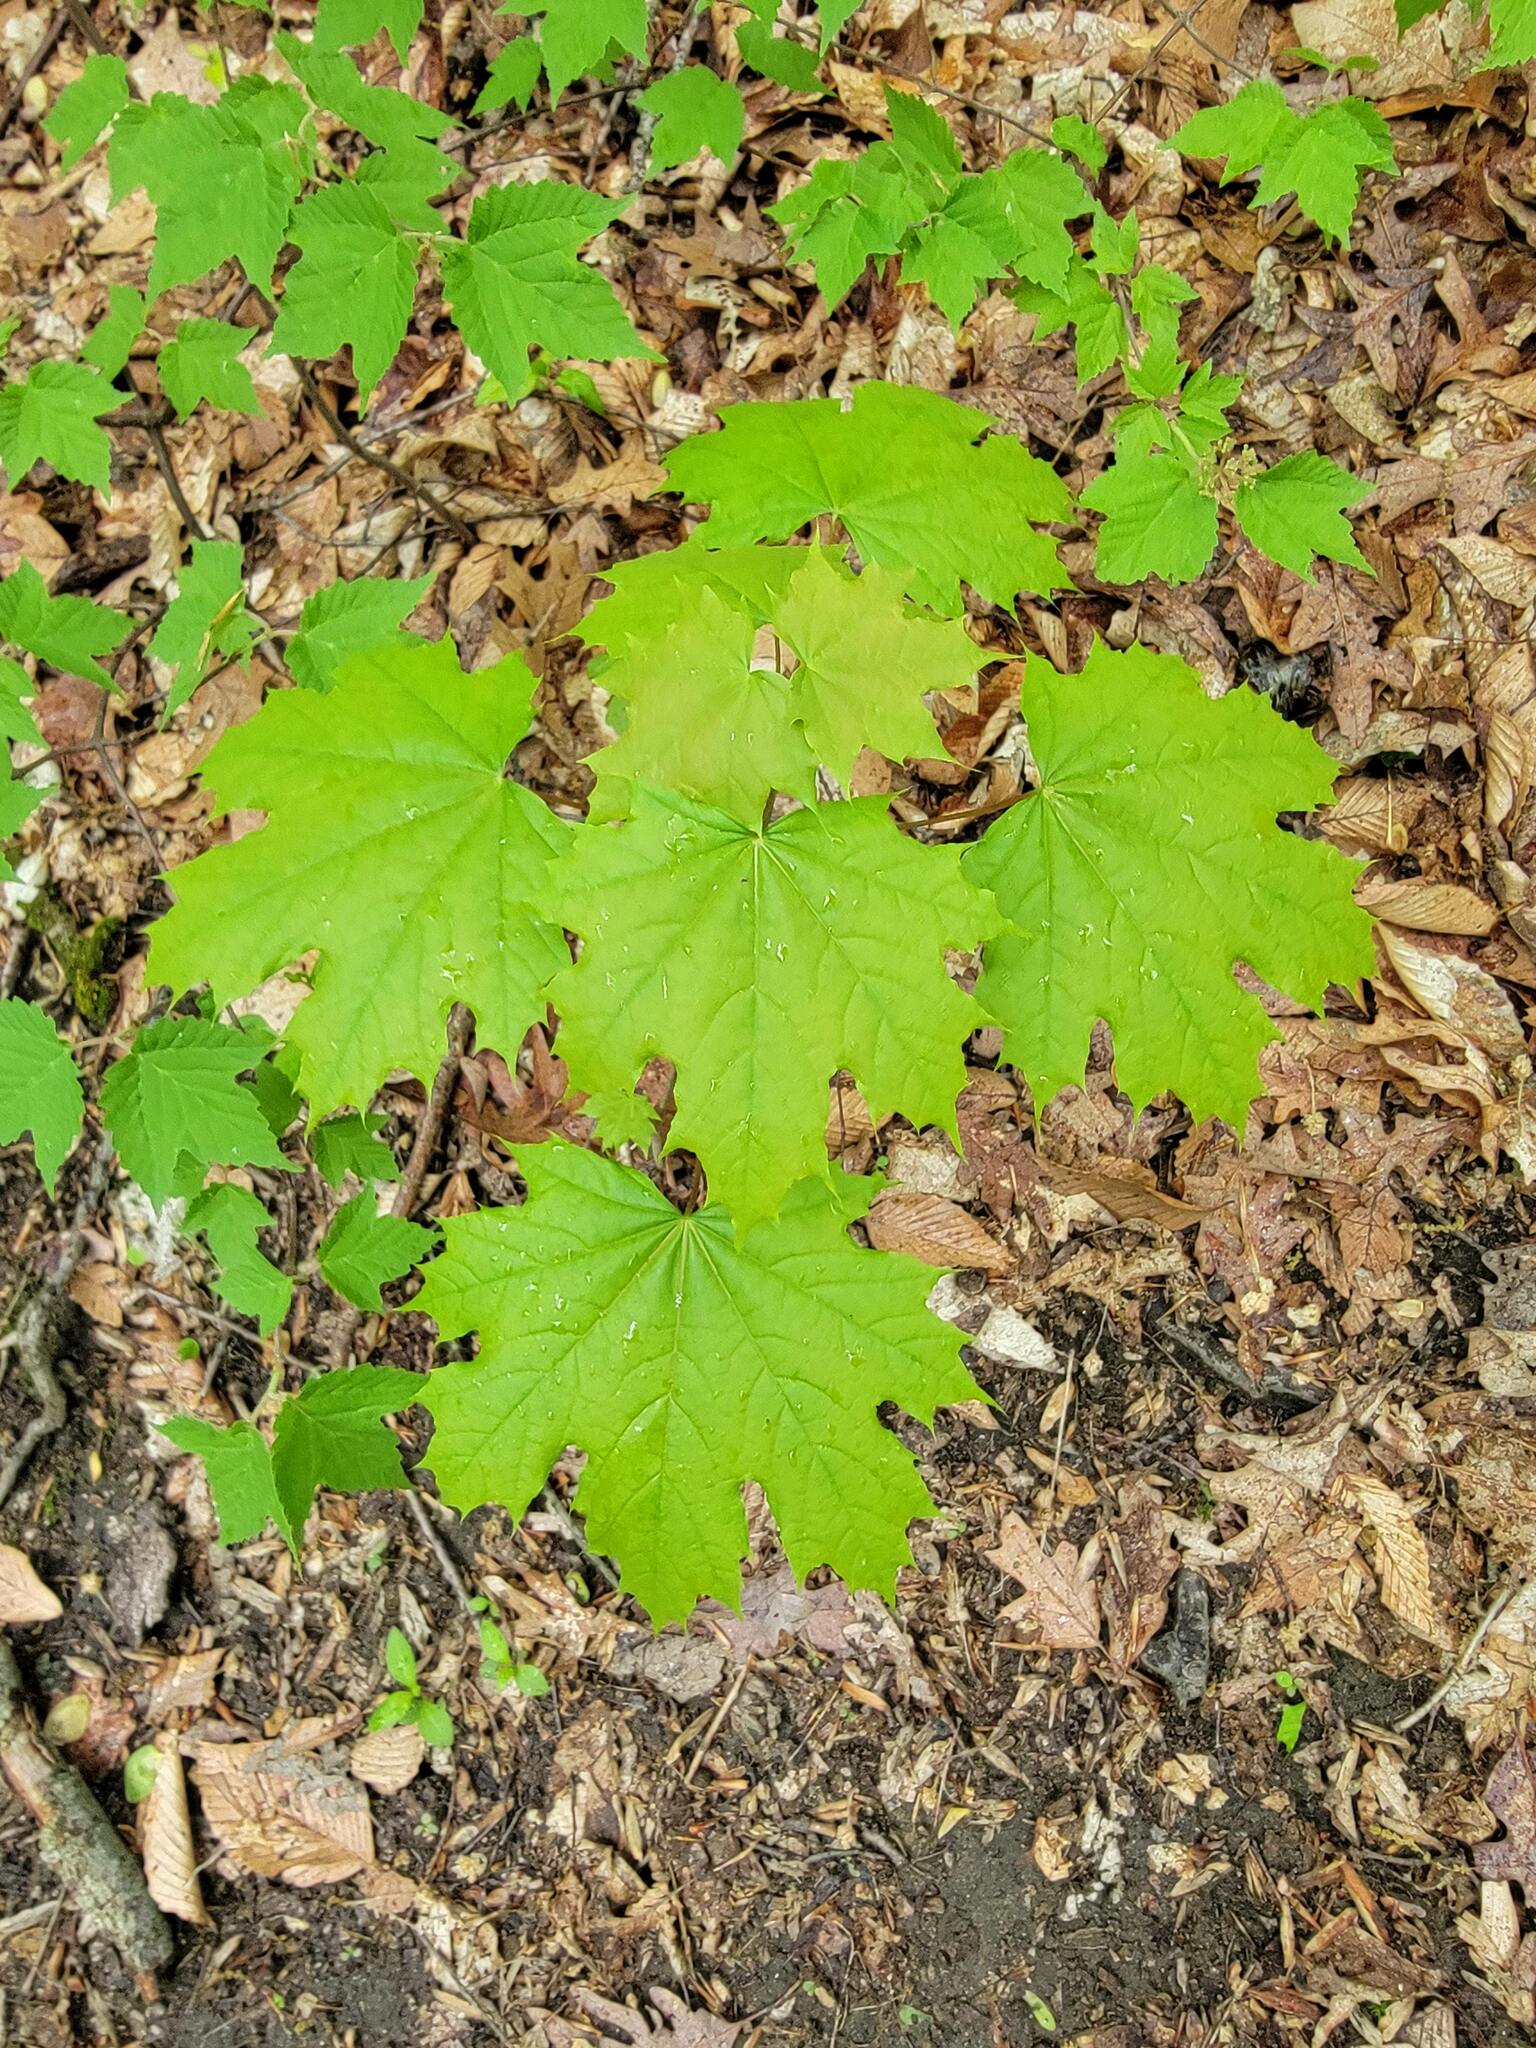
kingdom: Plantae
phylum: Tracheophyta
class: Magnoliopsida
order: Sapindales
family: Sapindaceae
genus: Acer
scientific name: Acer platanoides
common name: Norway maple
